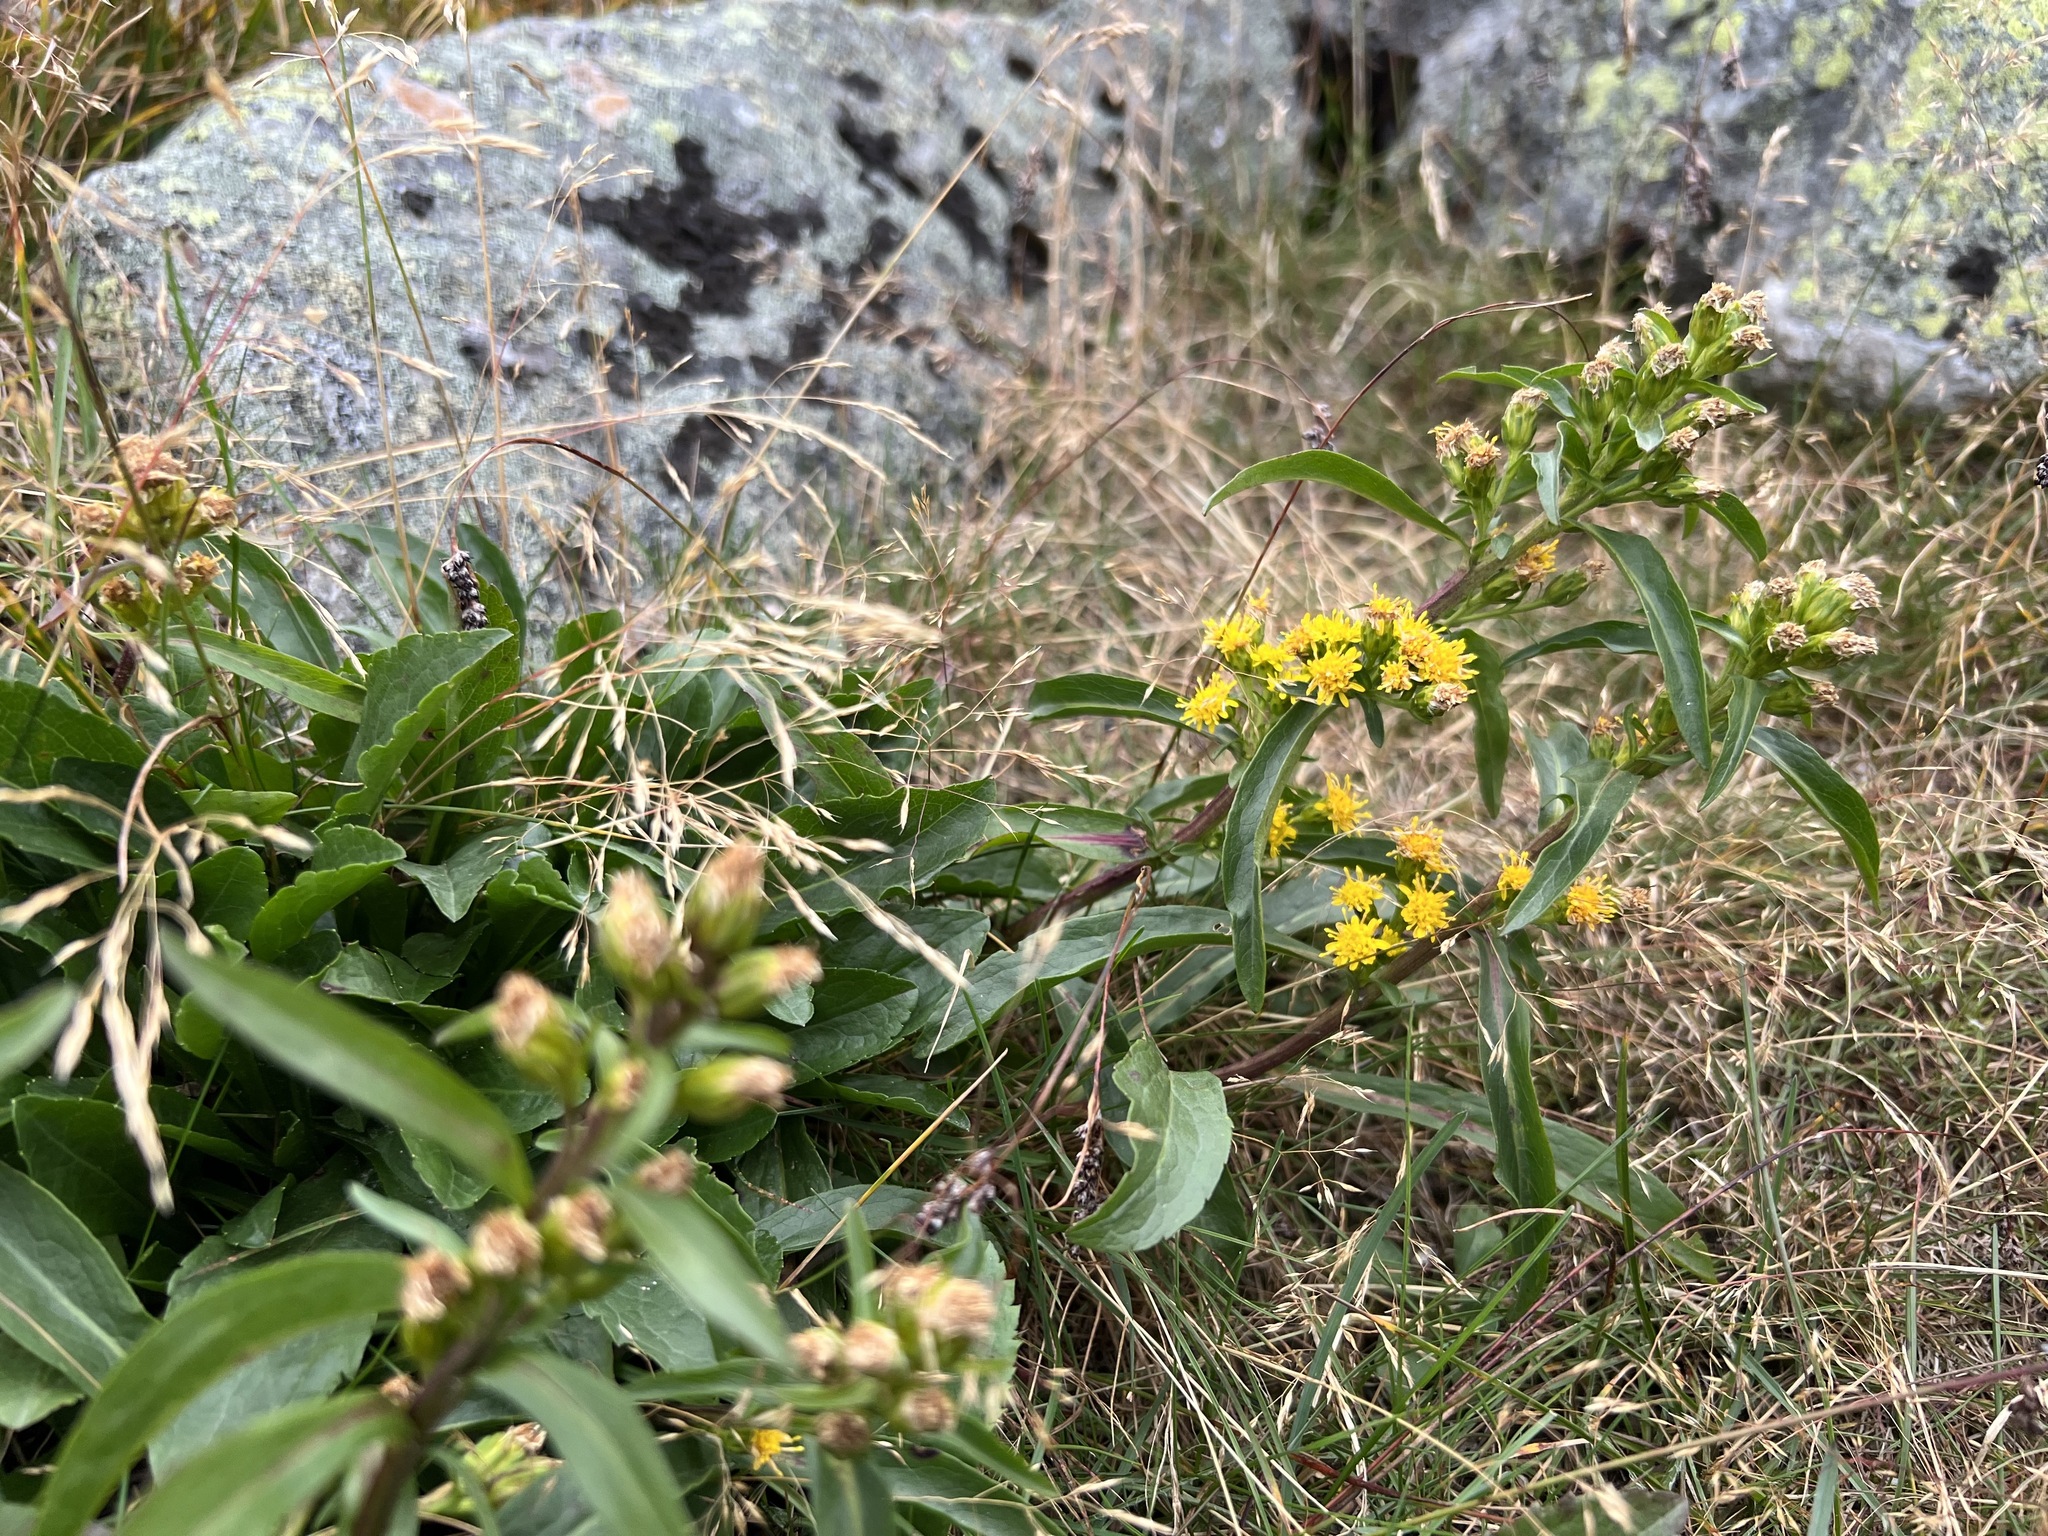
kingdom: Plantae
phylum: Tracheophyta
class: Magnoliopsida
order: Asterales
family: Asteraceae
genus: Solidago
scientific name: Solidago leiocarpa
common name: Cutler's alpine goldenrod
